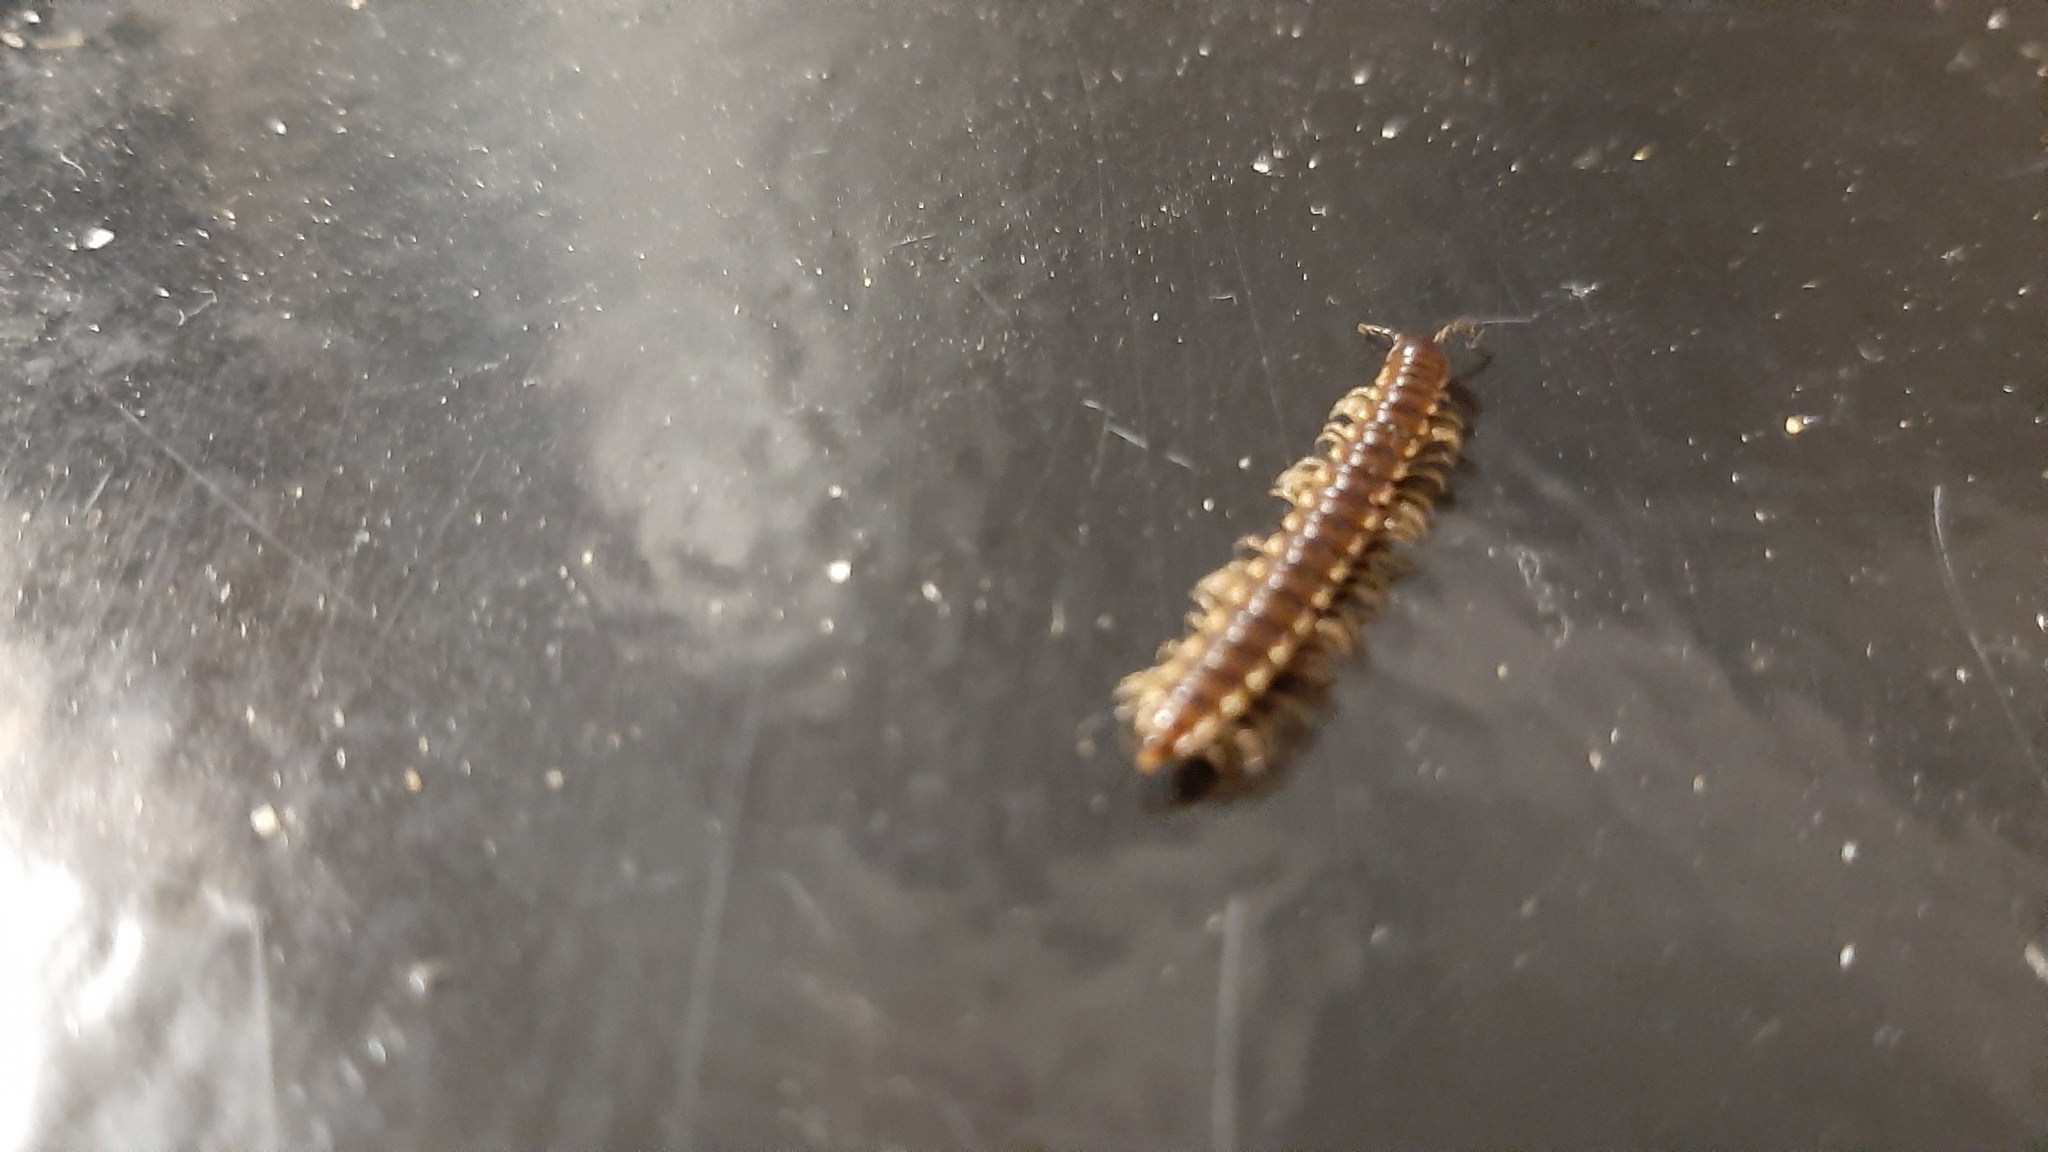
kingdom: Animalia
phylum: Arthropoda
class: Diplopoda
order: Polydesmida
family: Paradoxosomatidae
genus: Oxidus
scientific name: Oxidus gracilis
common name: Greenhouse millipede
